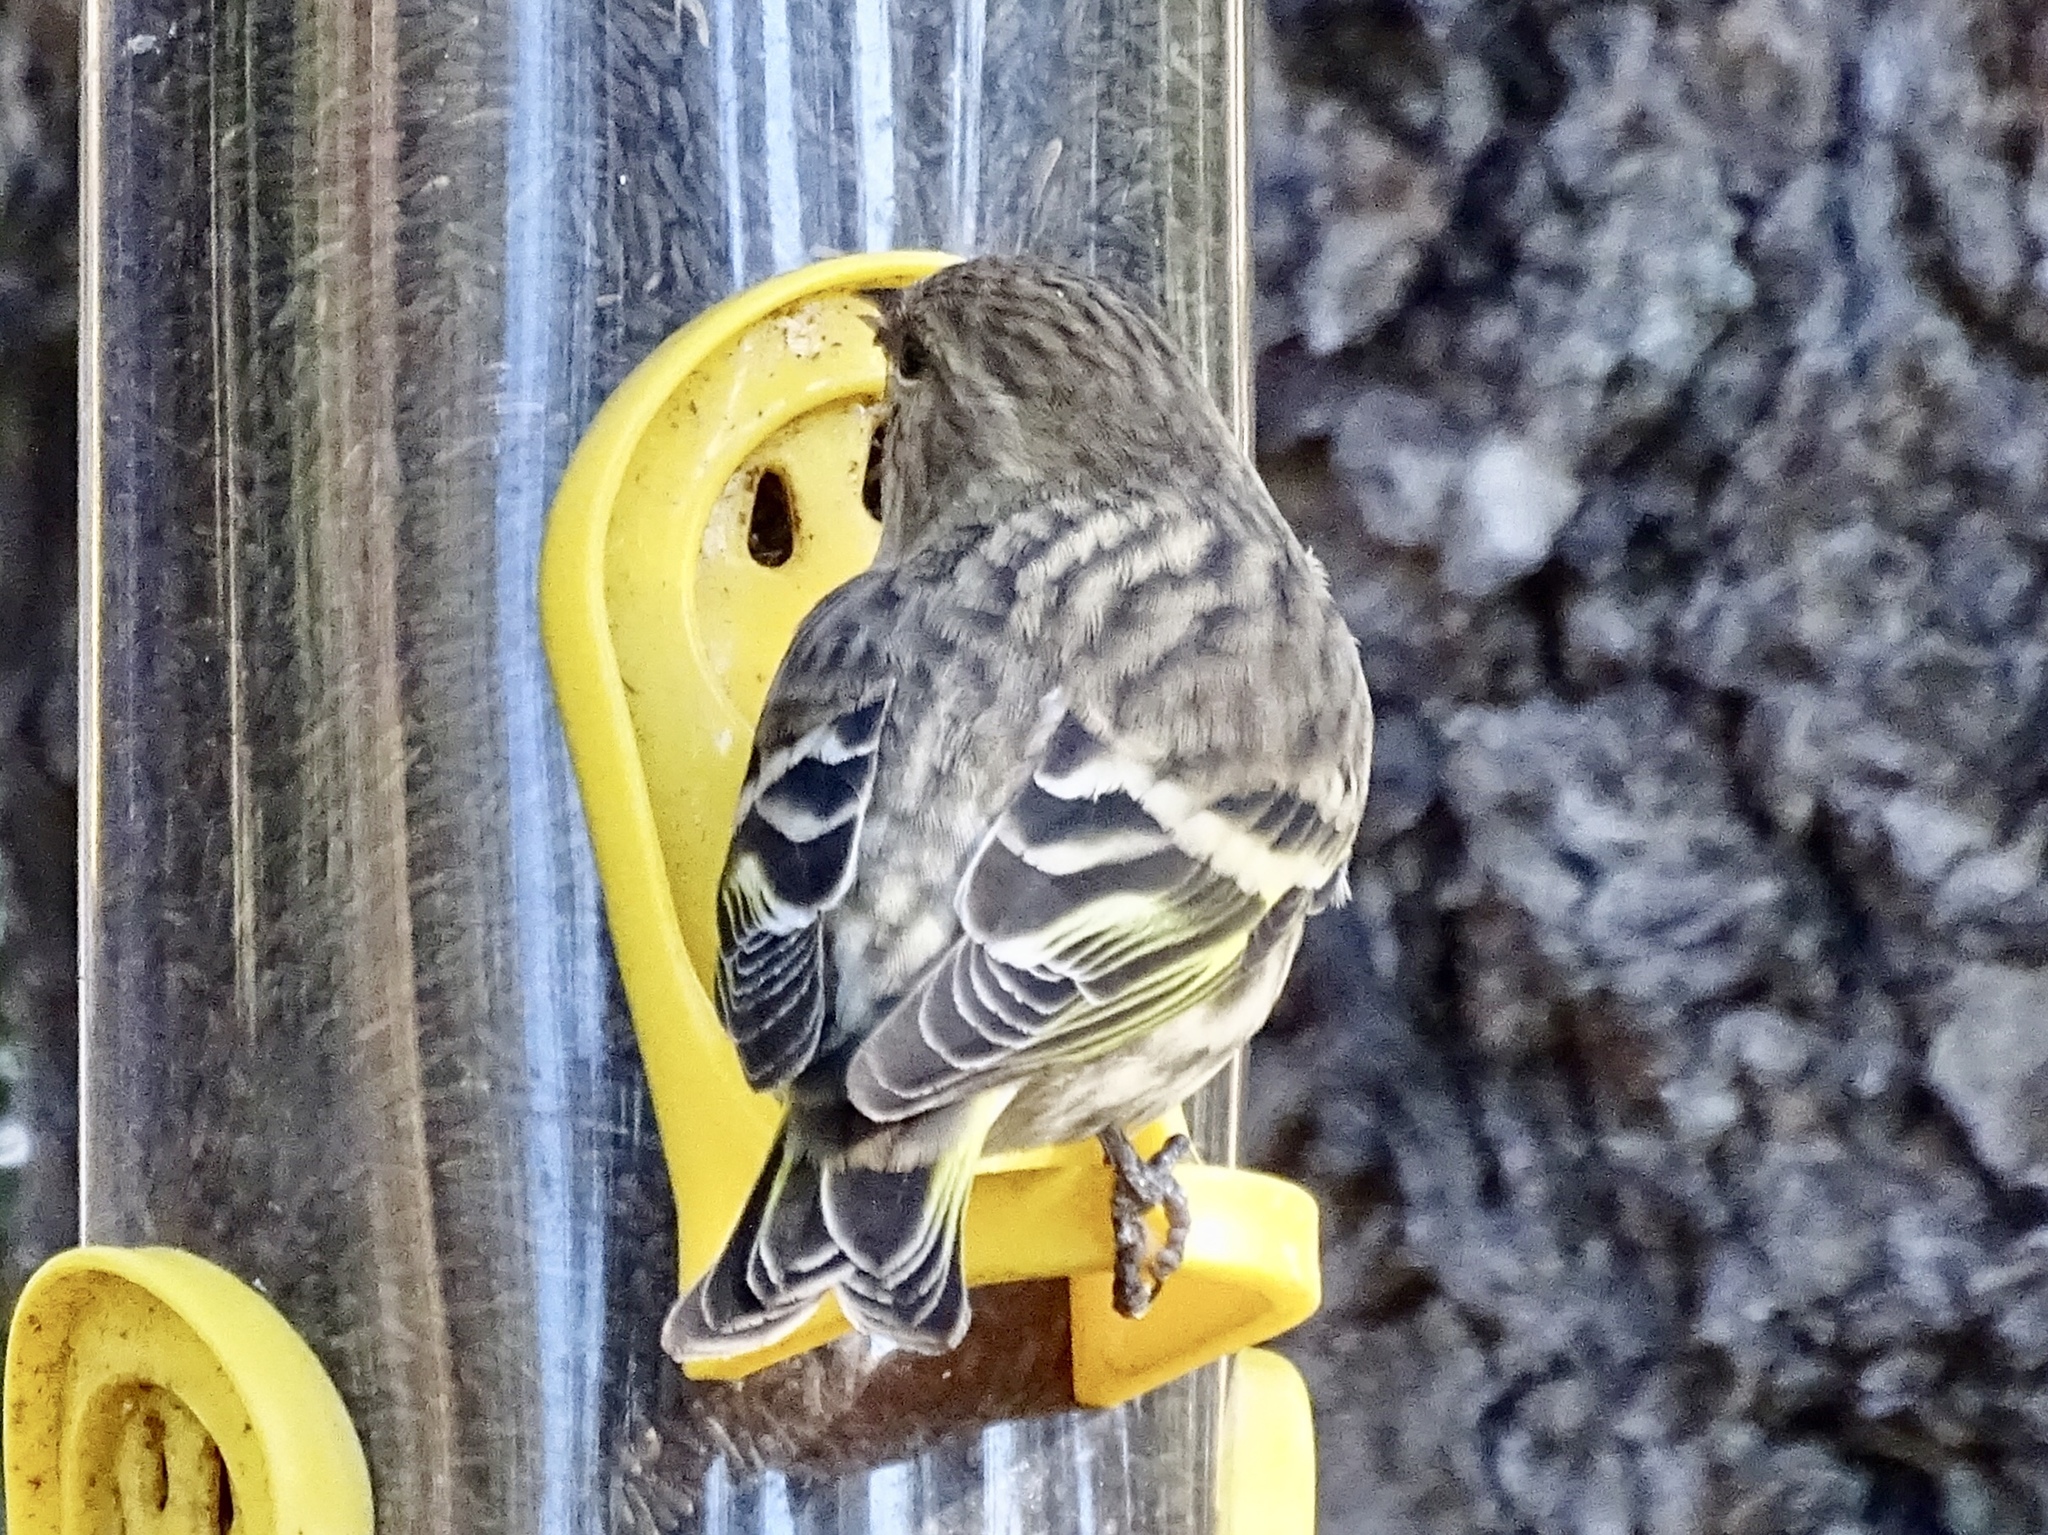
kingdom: Animalia
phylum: Chordata
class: Aves
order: Passeriformes
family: Fringillidae
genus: Spinus
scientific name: Spinus pinus
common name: Pine siskin
